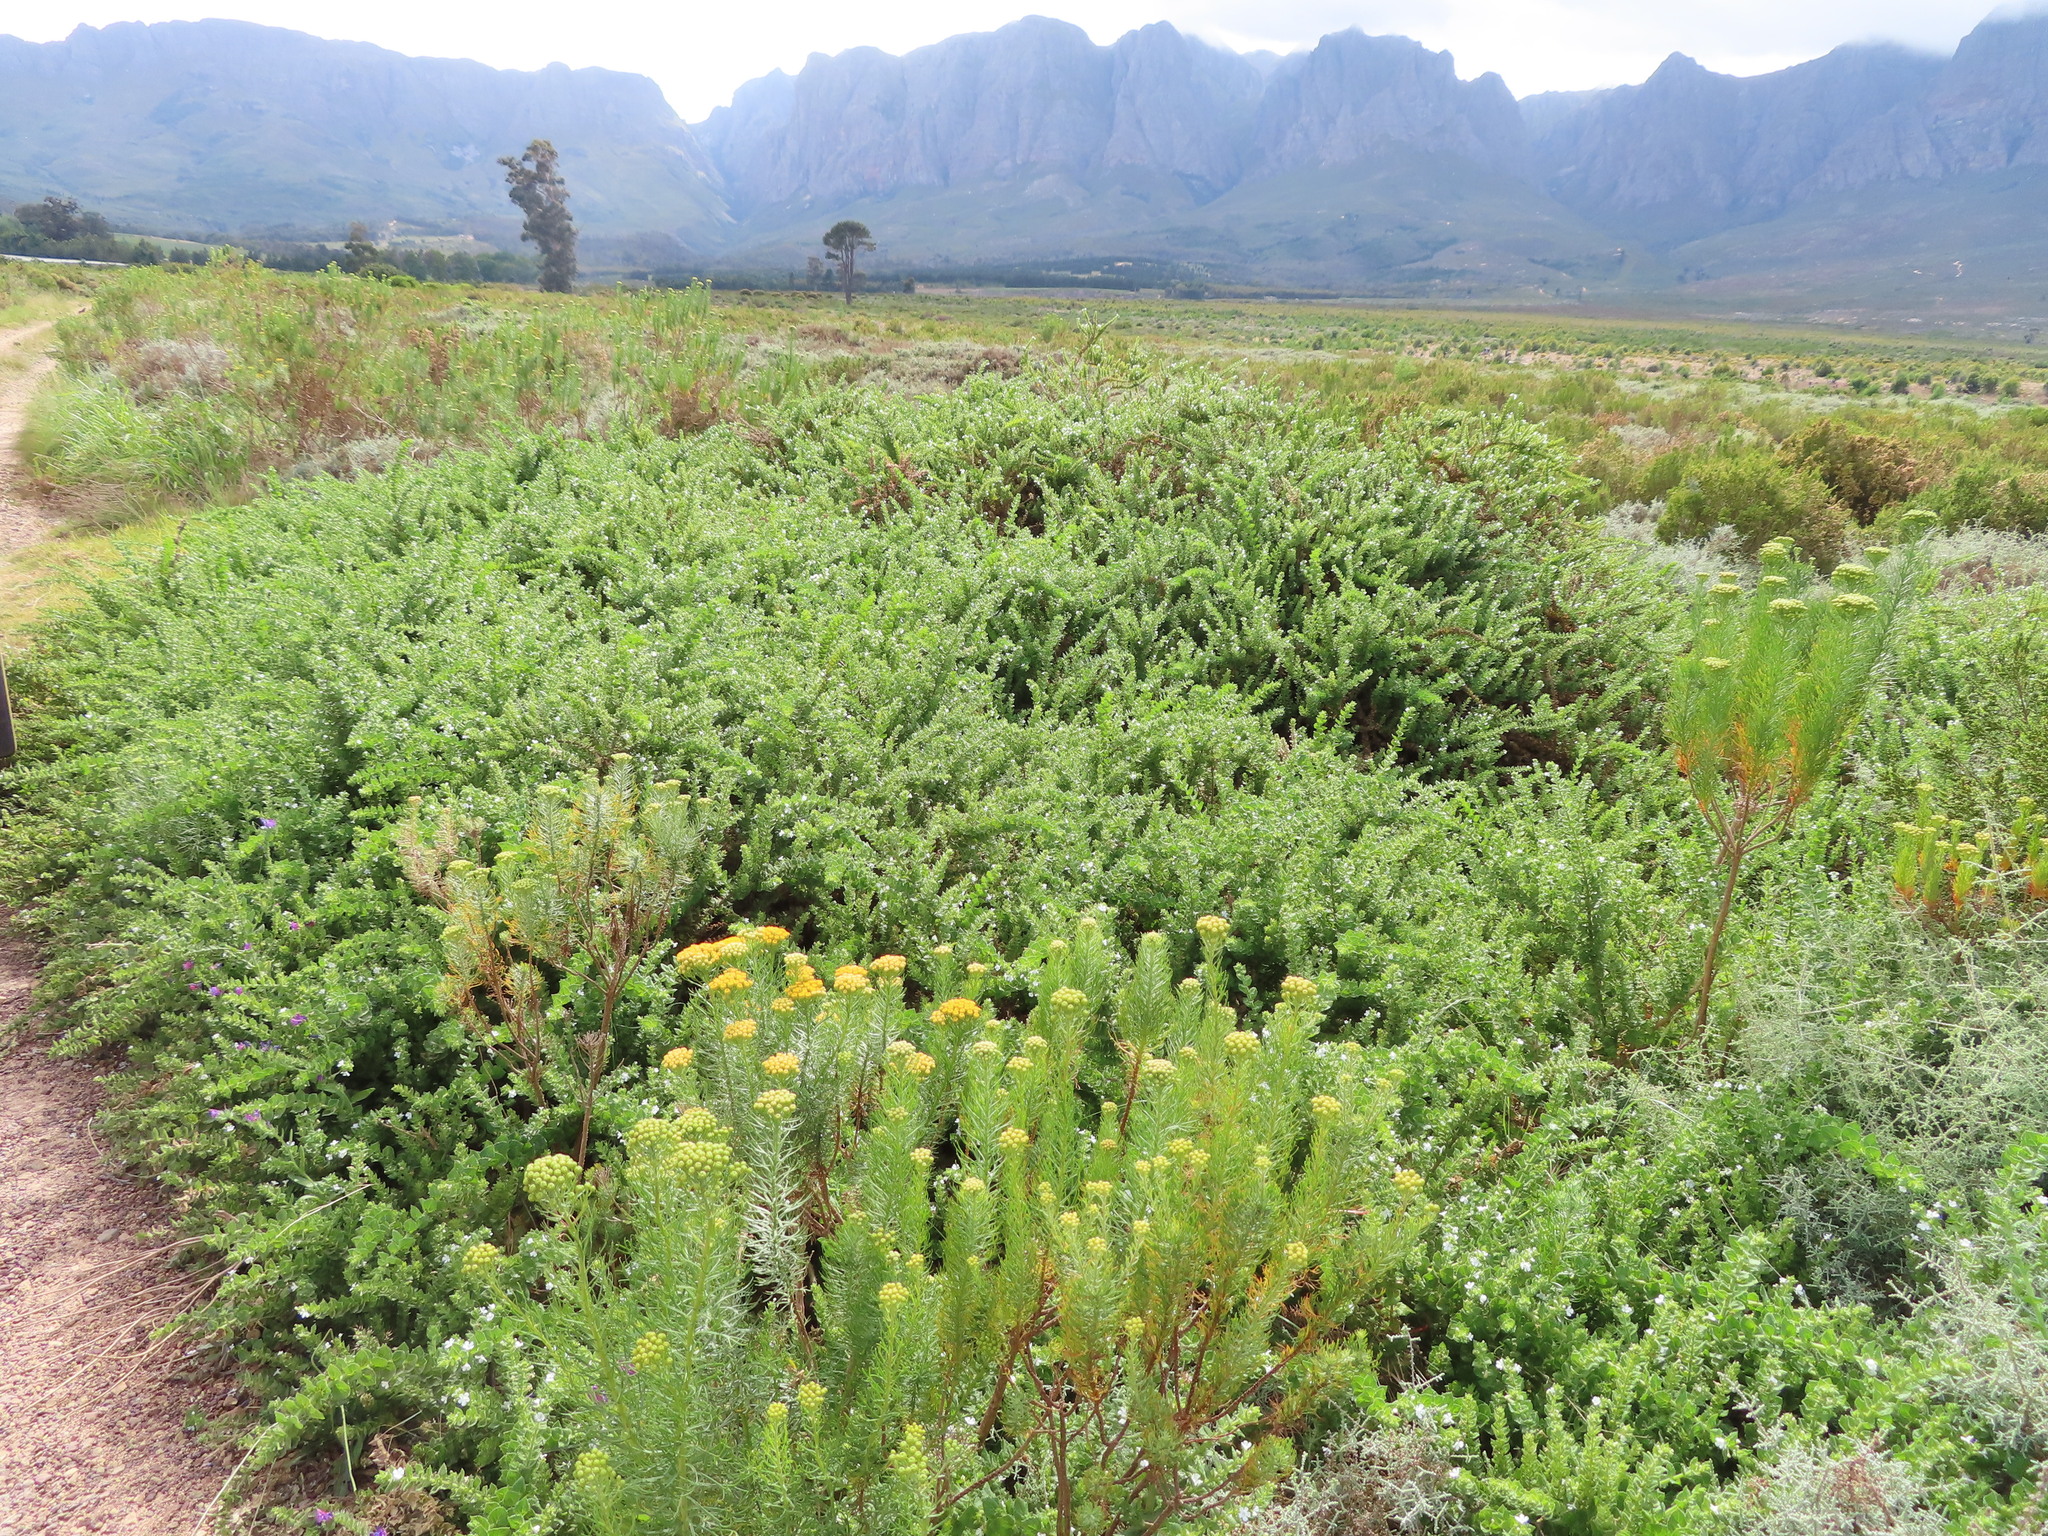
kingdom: Plantae
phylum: Tracheophyta
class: Magnoliopsida
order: Lamiales
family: Scrophulariaceae
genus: Oftia
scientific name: Oftia africana
